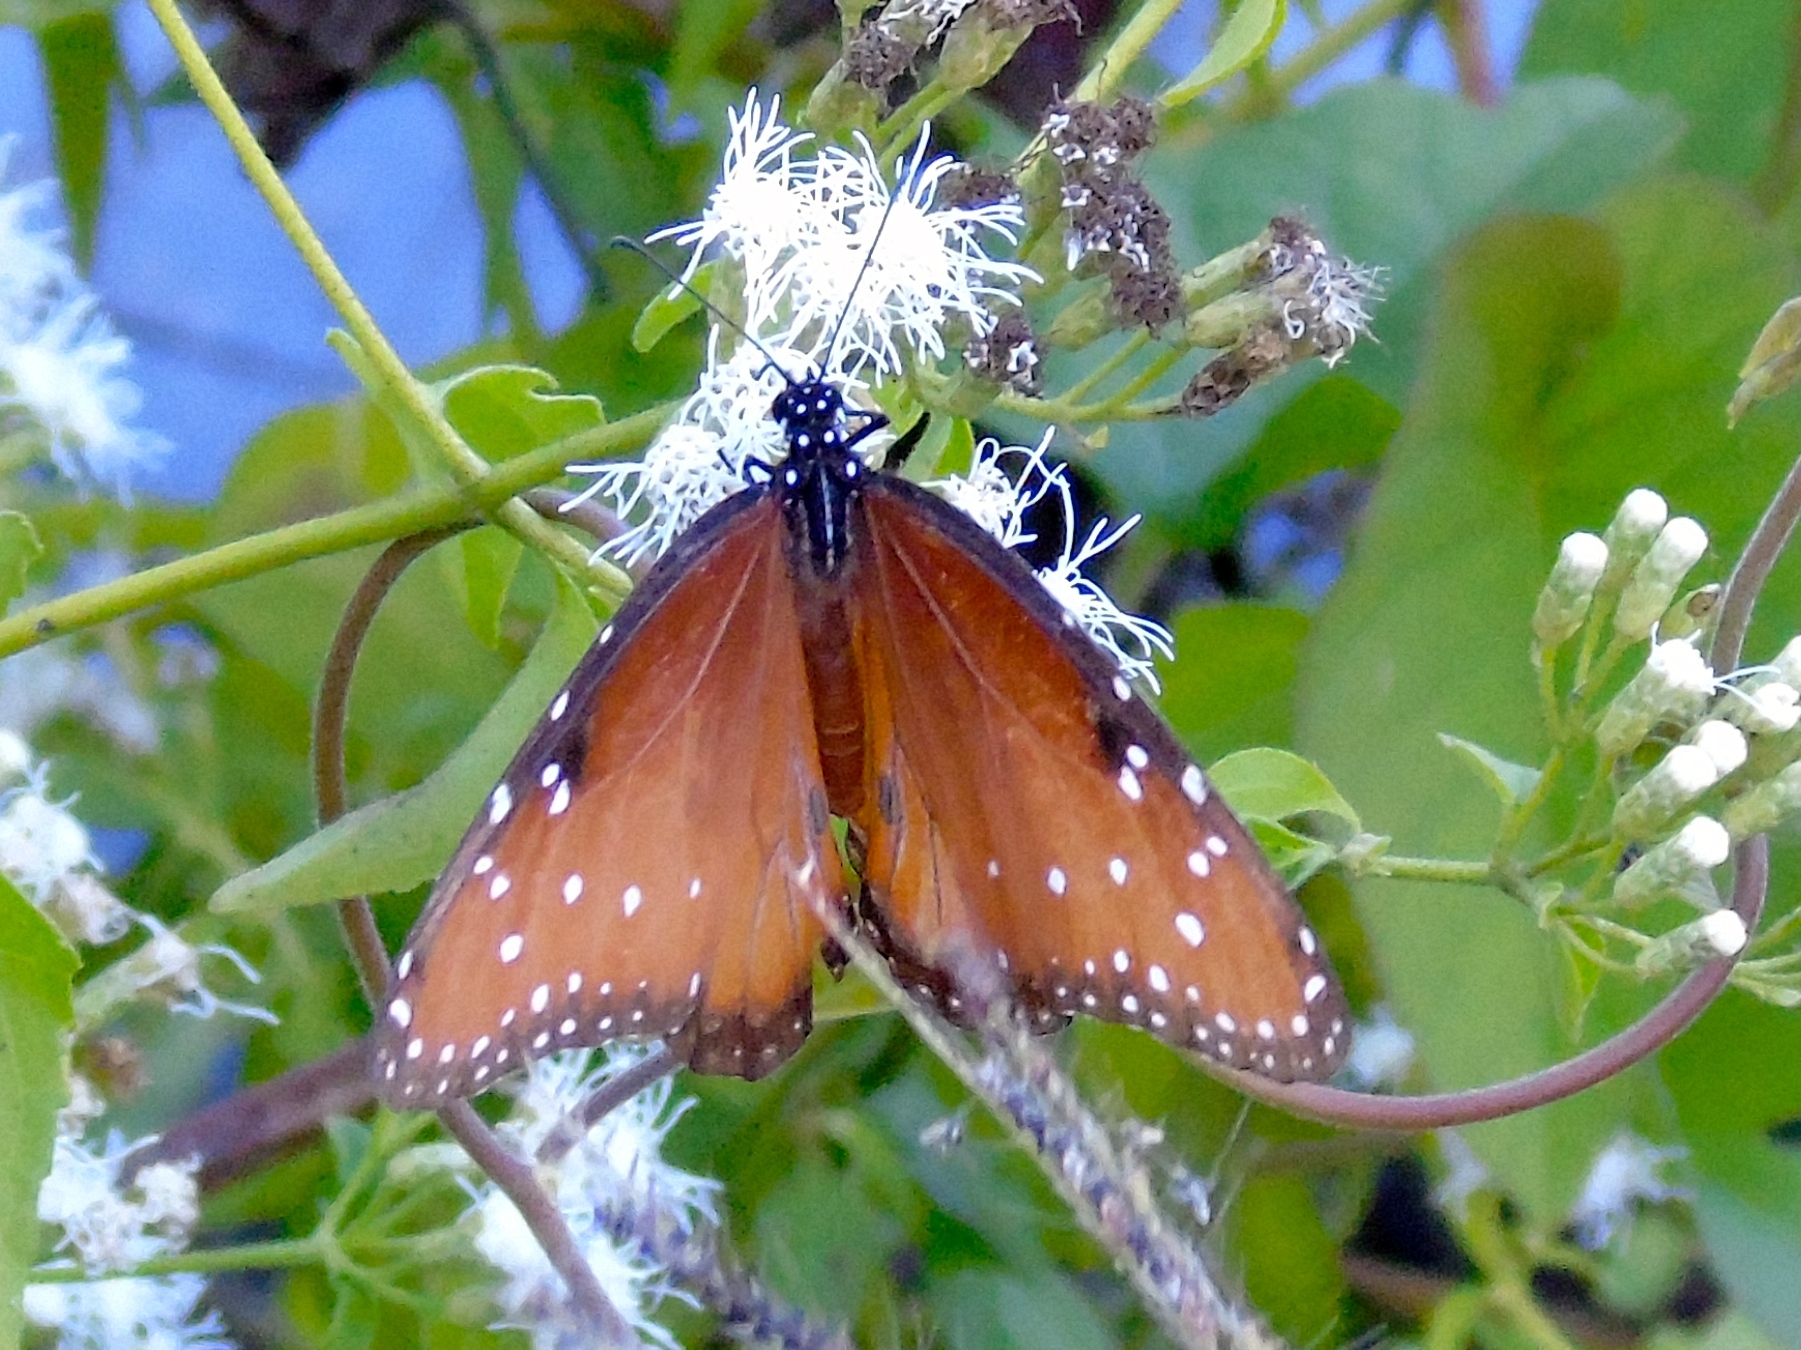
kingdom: Animalia
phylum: Arthropoda
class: Insecta
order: Lepidoptera
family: Nymphalidae
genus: Danaus
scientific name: Danaus gilippus
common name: Queen
